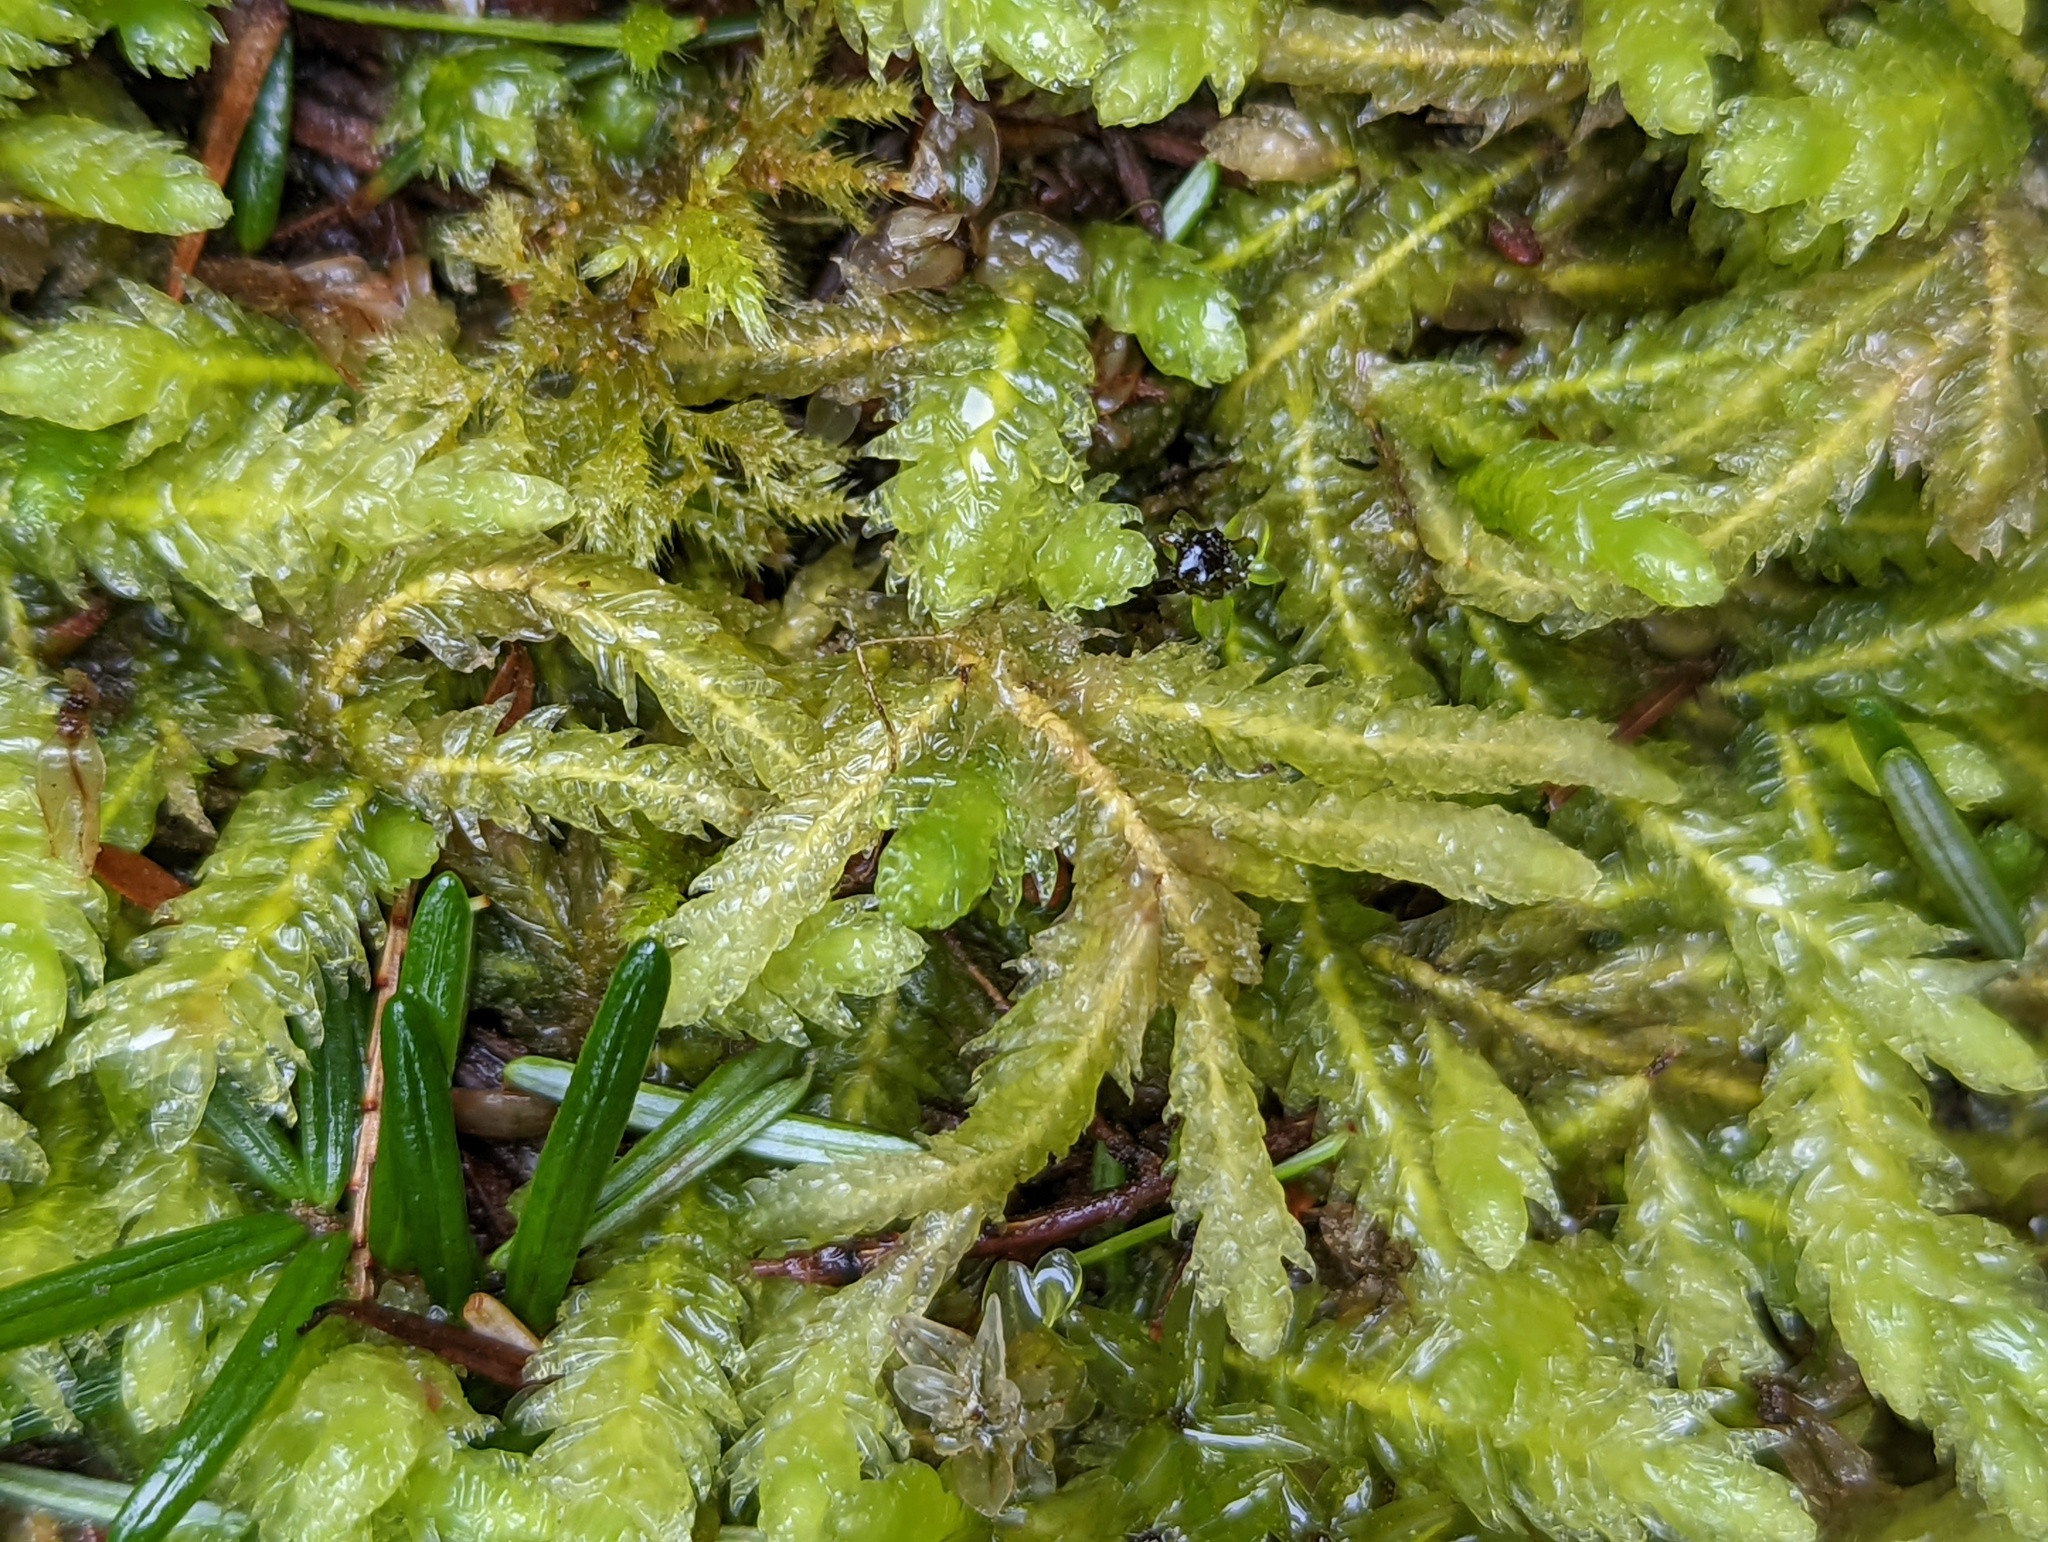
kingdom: Plantae
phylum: Bryophyta
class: Bryopsida
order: Hypnales
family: Plagiotheciaceae
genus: Plagiothecium
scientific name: Plagiothecium undulatum
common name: Waved silk-moss
